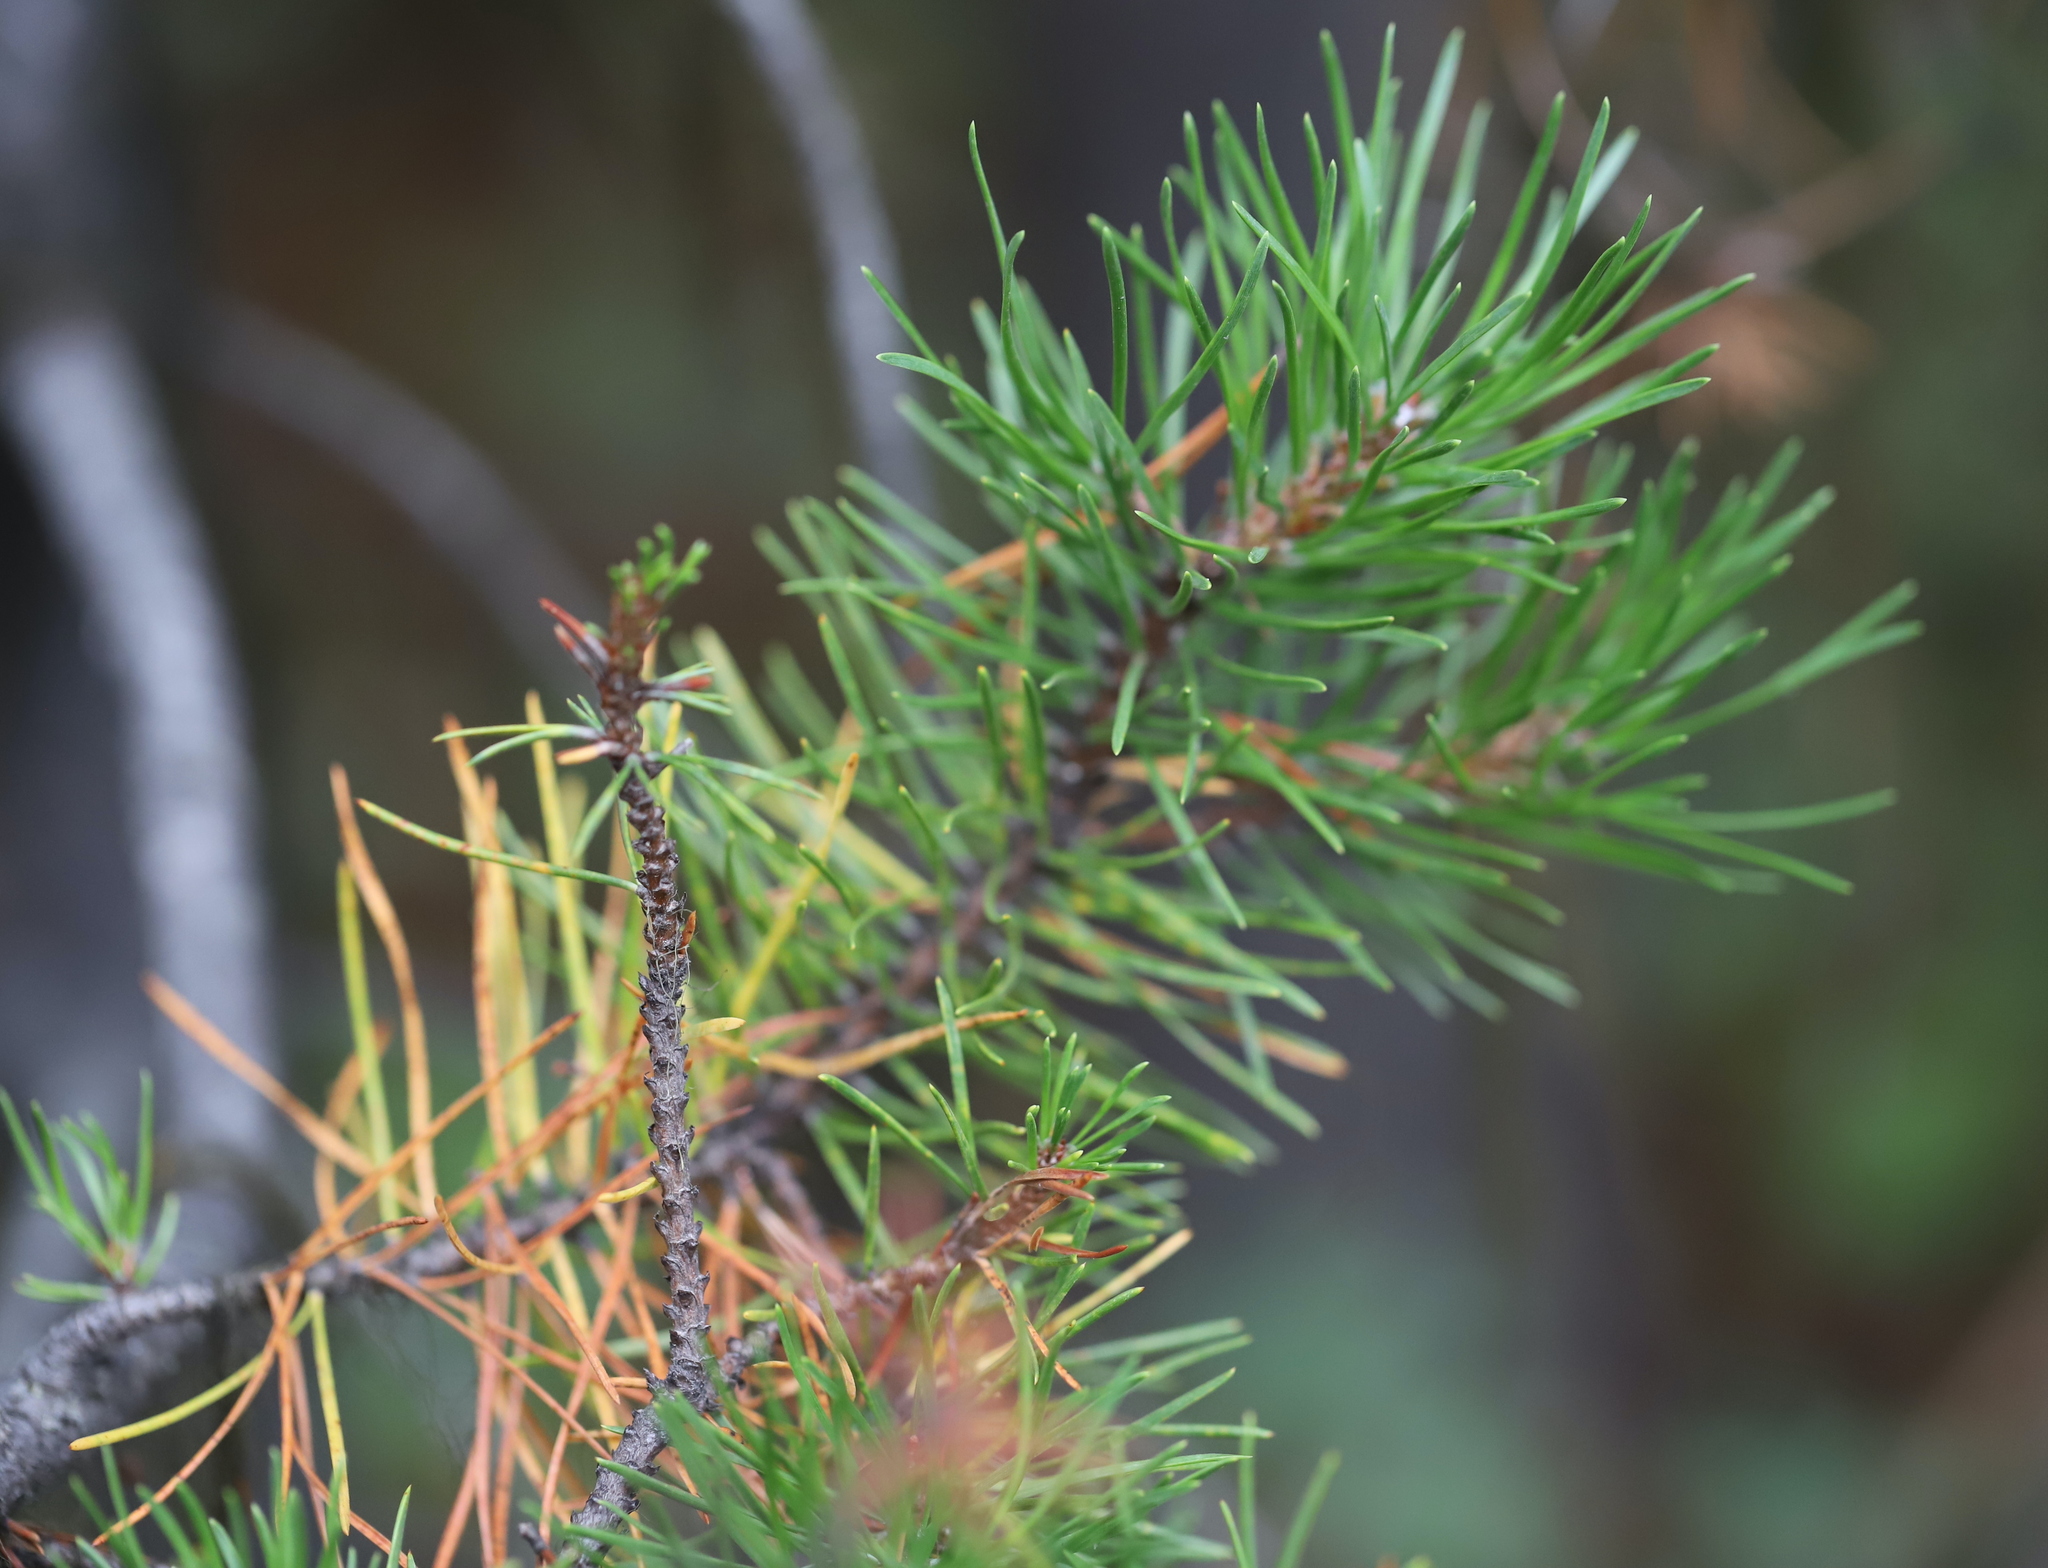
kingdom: Plantae
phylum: Tracheophyta
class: Pinopsida
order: Pinales
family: Pinaceae
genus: Pinus
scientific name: Pinus contorta
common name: Lodgepole pine
